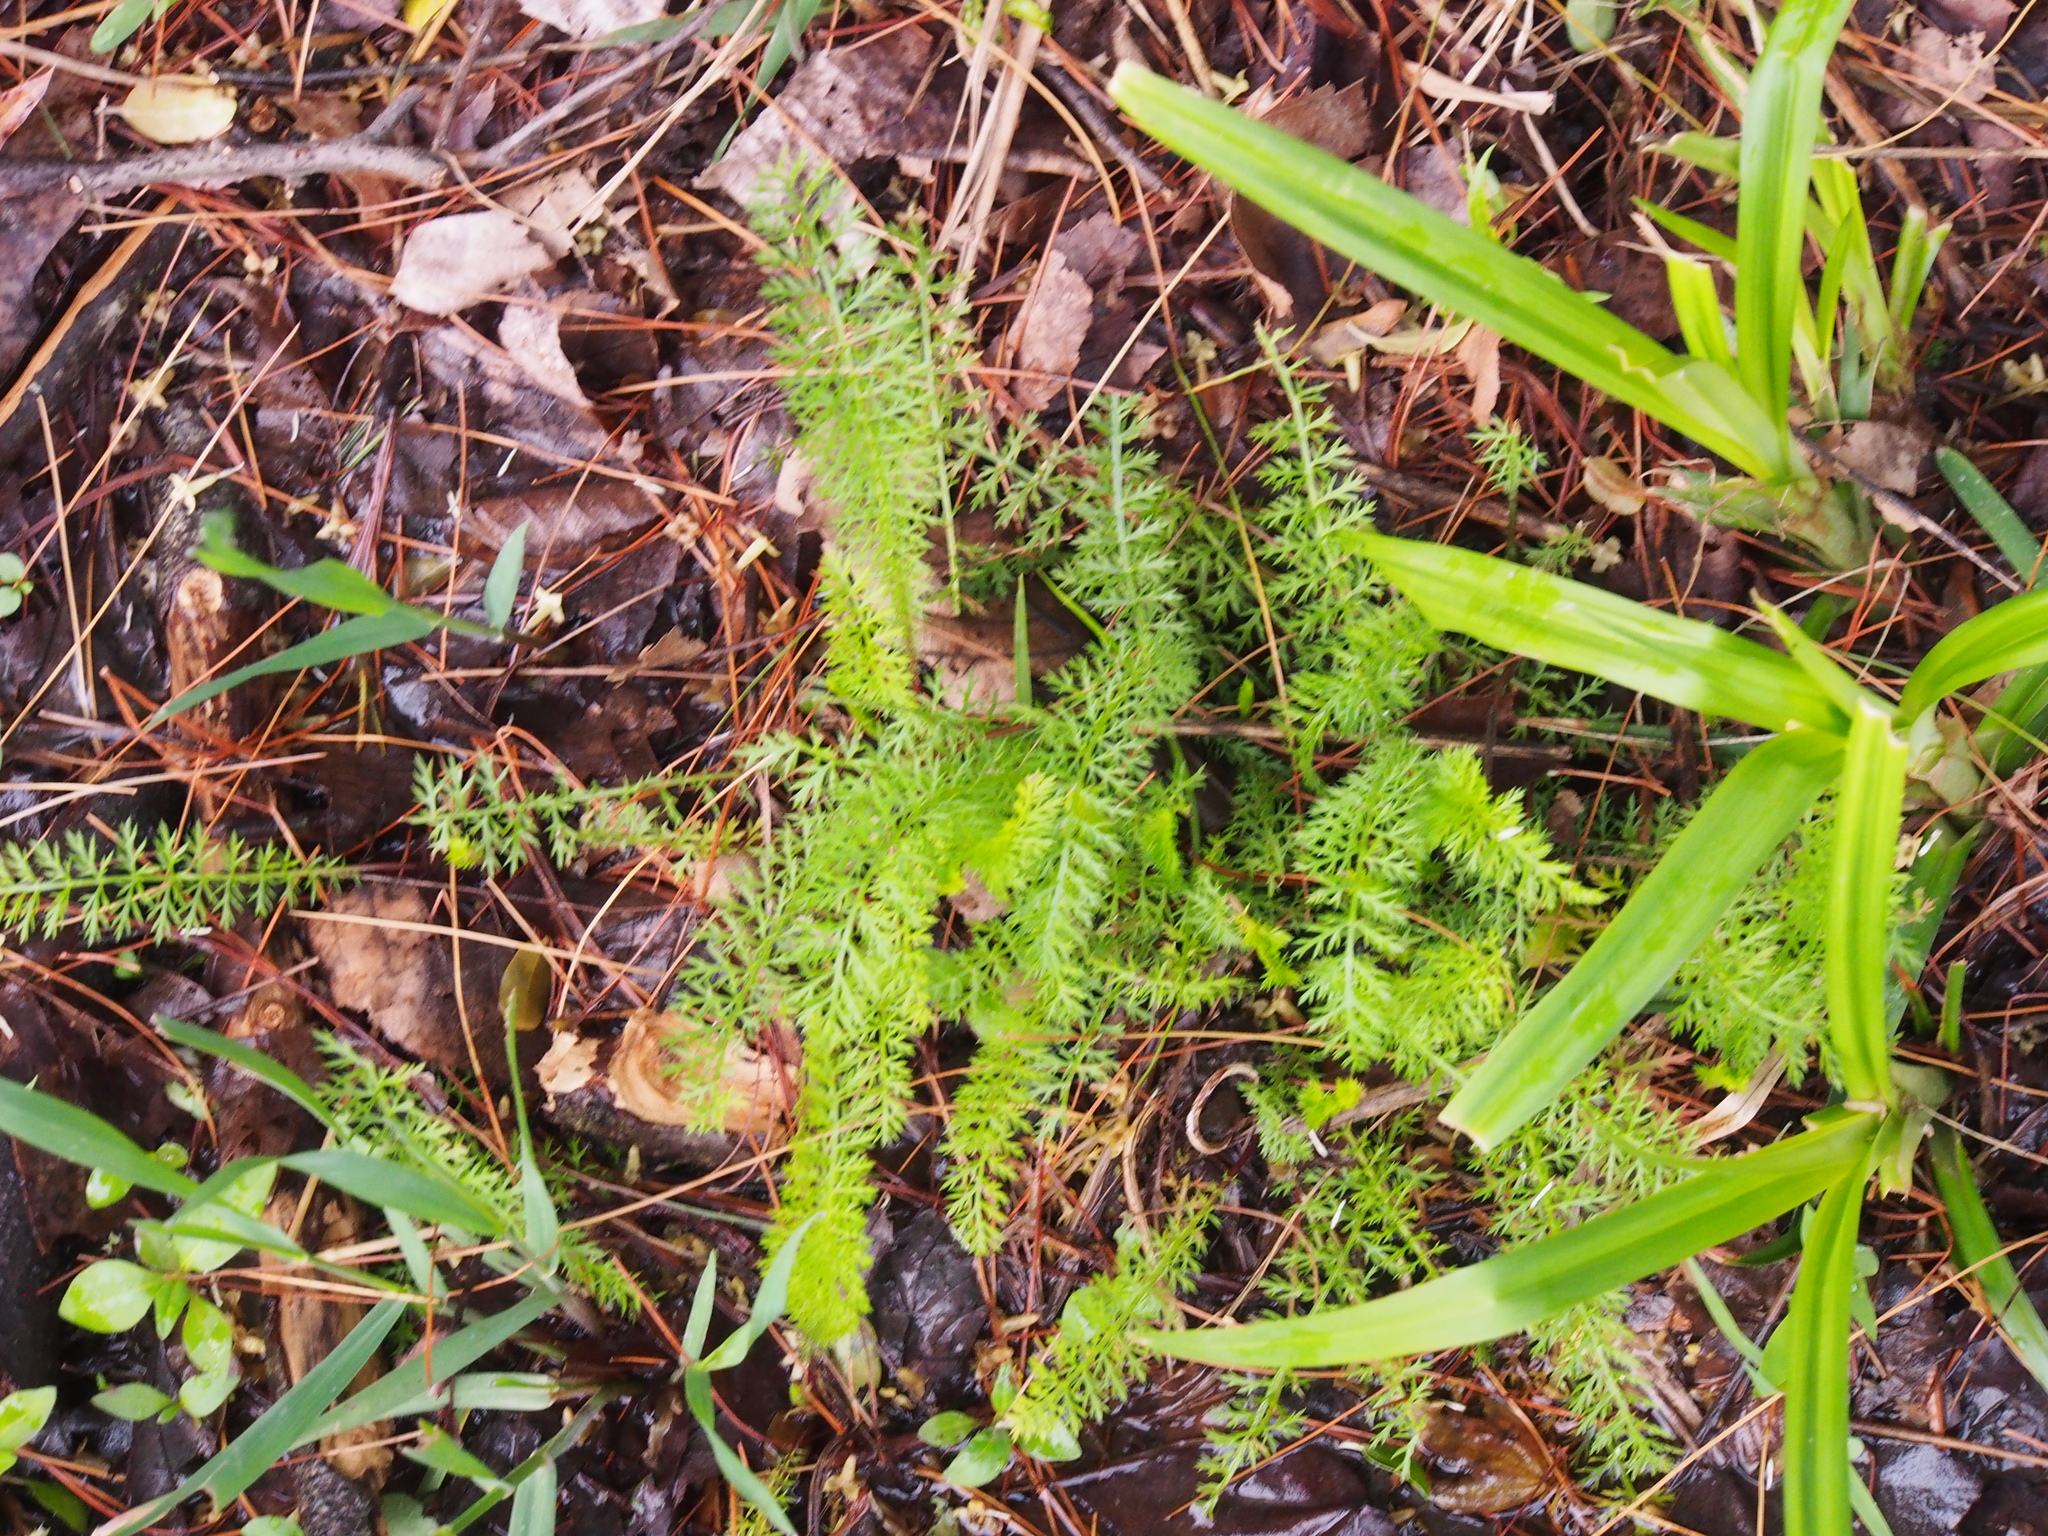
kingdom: Plantae
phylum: Tracheophyta
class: Magnoliopsida
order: Asterales
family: Asteraceae
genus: Achillea
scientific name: Achillea millefolium
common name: Yarrow
